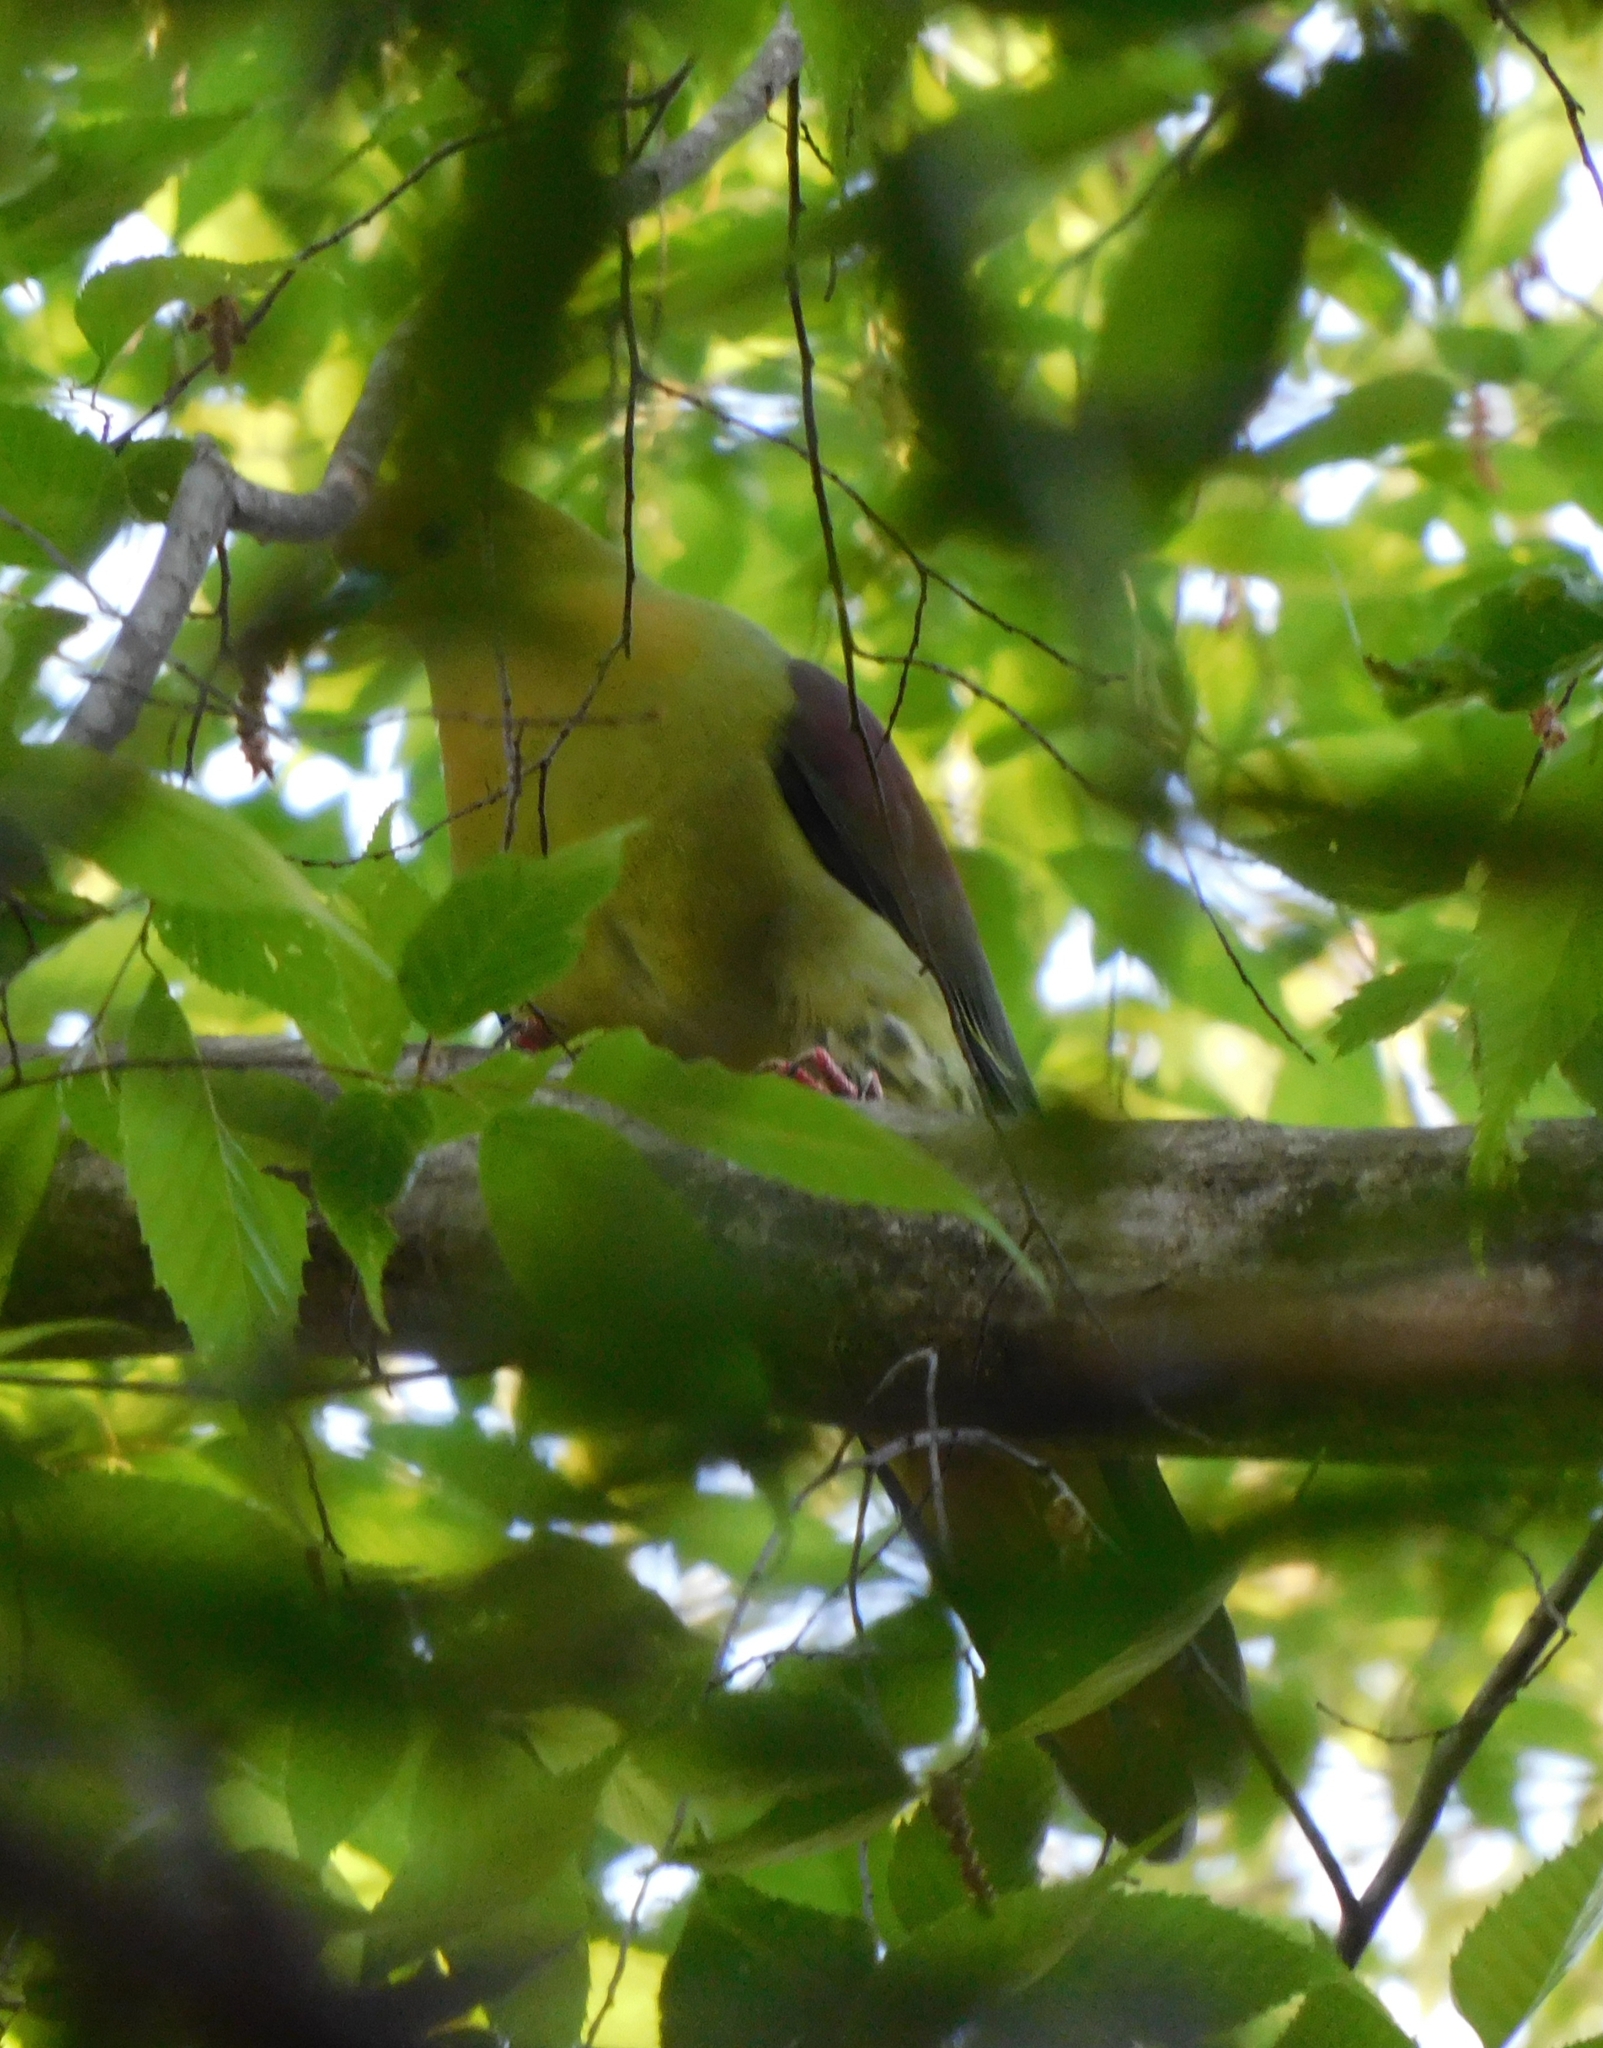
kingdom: Animalia
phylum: Chordata
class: Aves
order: Columbiformes
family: Columbidae
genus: Treron
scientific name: Treron sphenurus
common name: Wedge-tailed green pigeon
